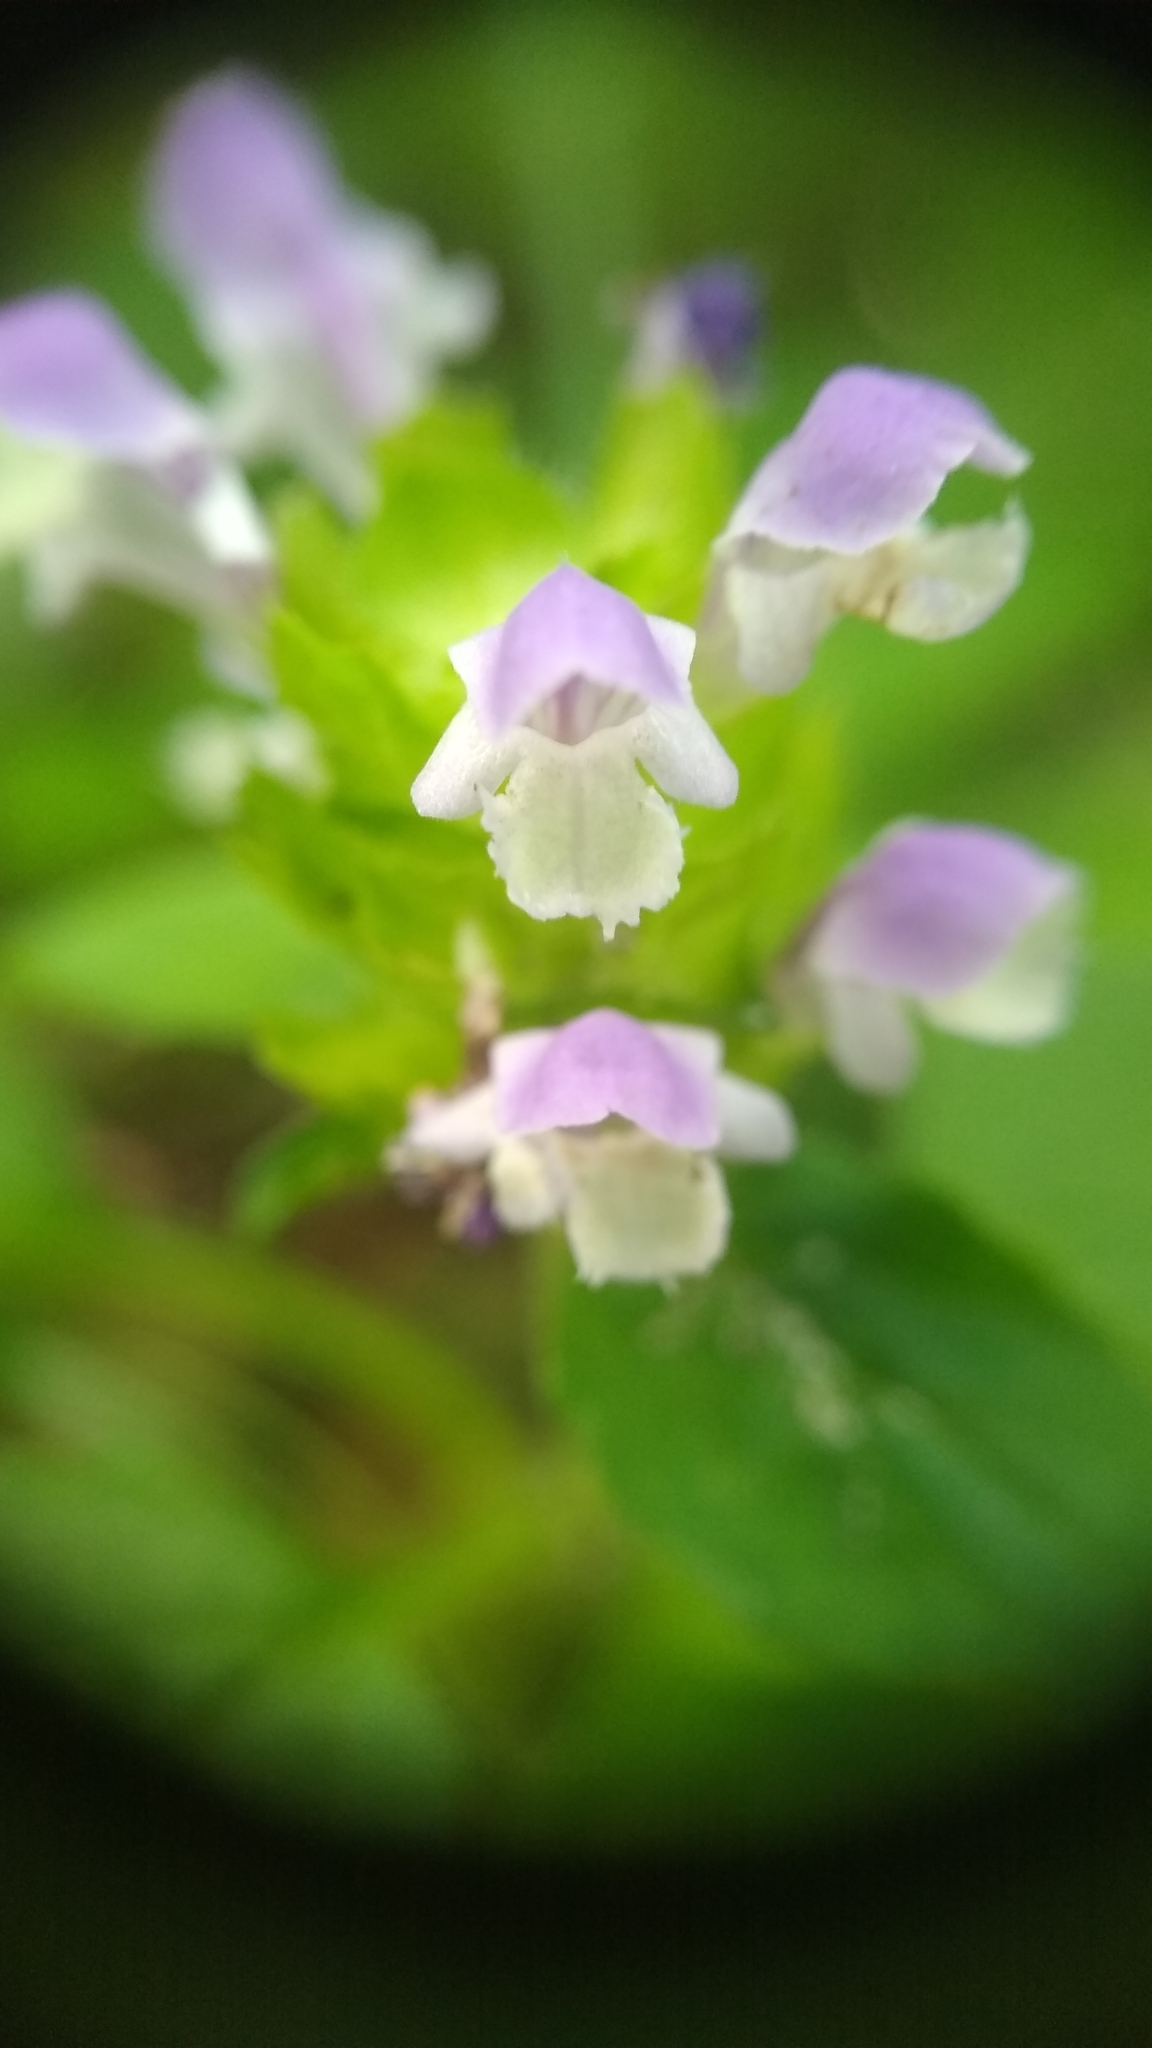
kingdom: Plantae
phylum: Tracheophyta
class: Magnoliopsida
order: Lamiales
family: Lamiaceae
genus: Prunella
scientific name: Prunella vulgaris
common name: Heal-all
